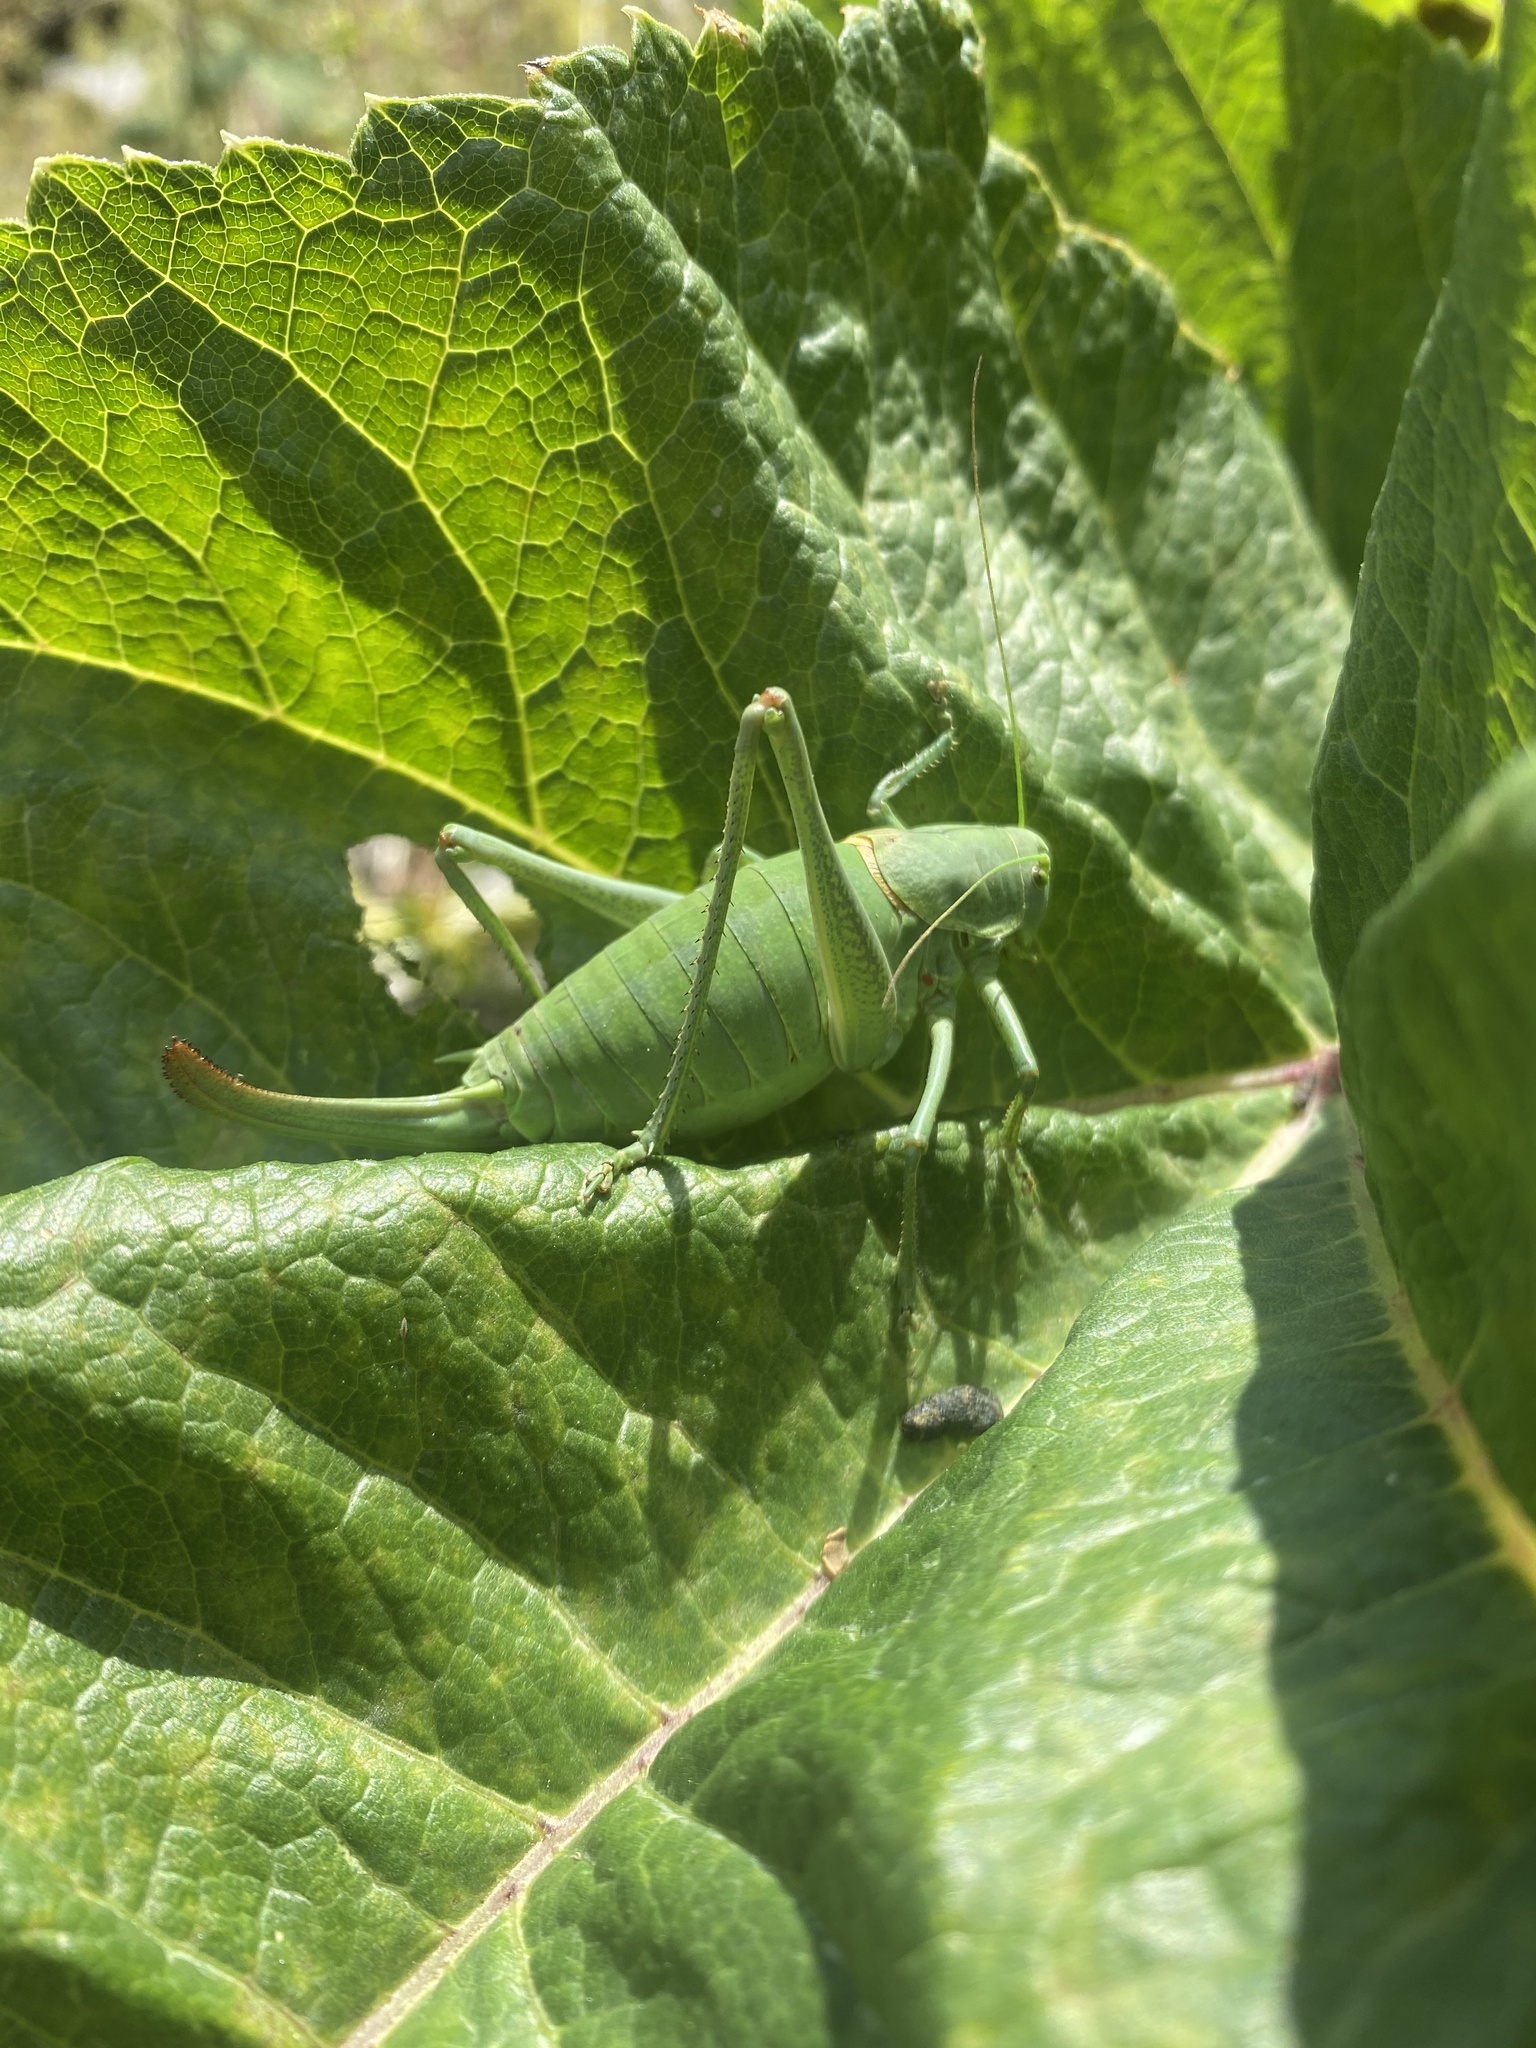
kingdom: Animalia
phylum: Arthropoda
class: Insecta
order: Orthoptera
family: Tettigoniidae
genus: Polysarcus
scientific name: Polysarcus denticauda
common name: Large saw-tailed bush-cricket
